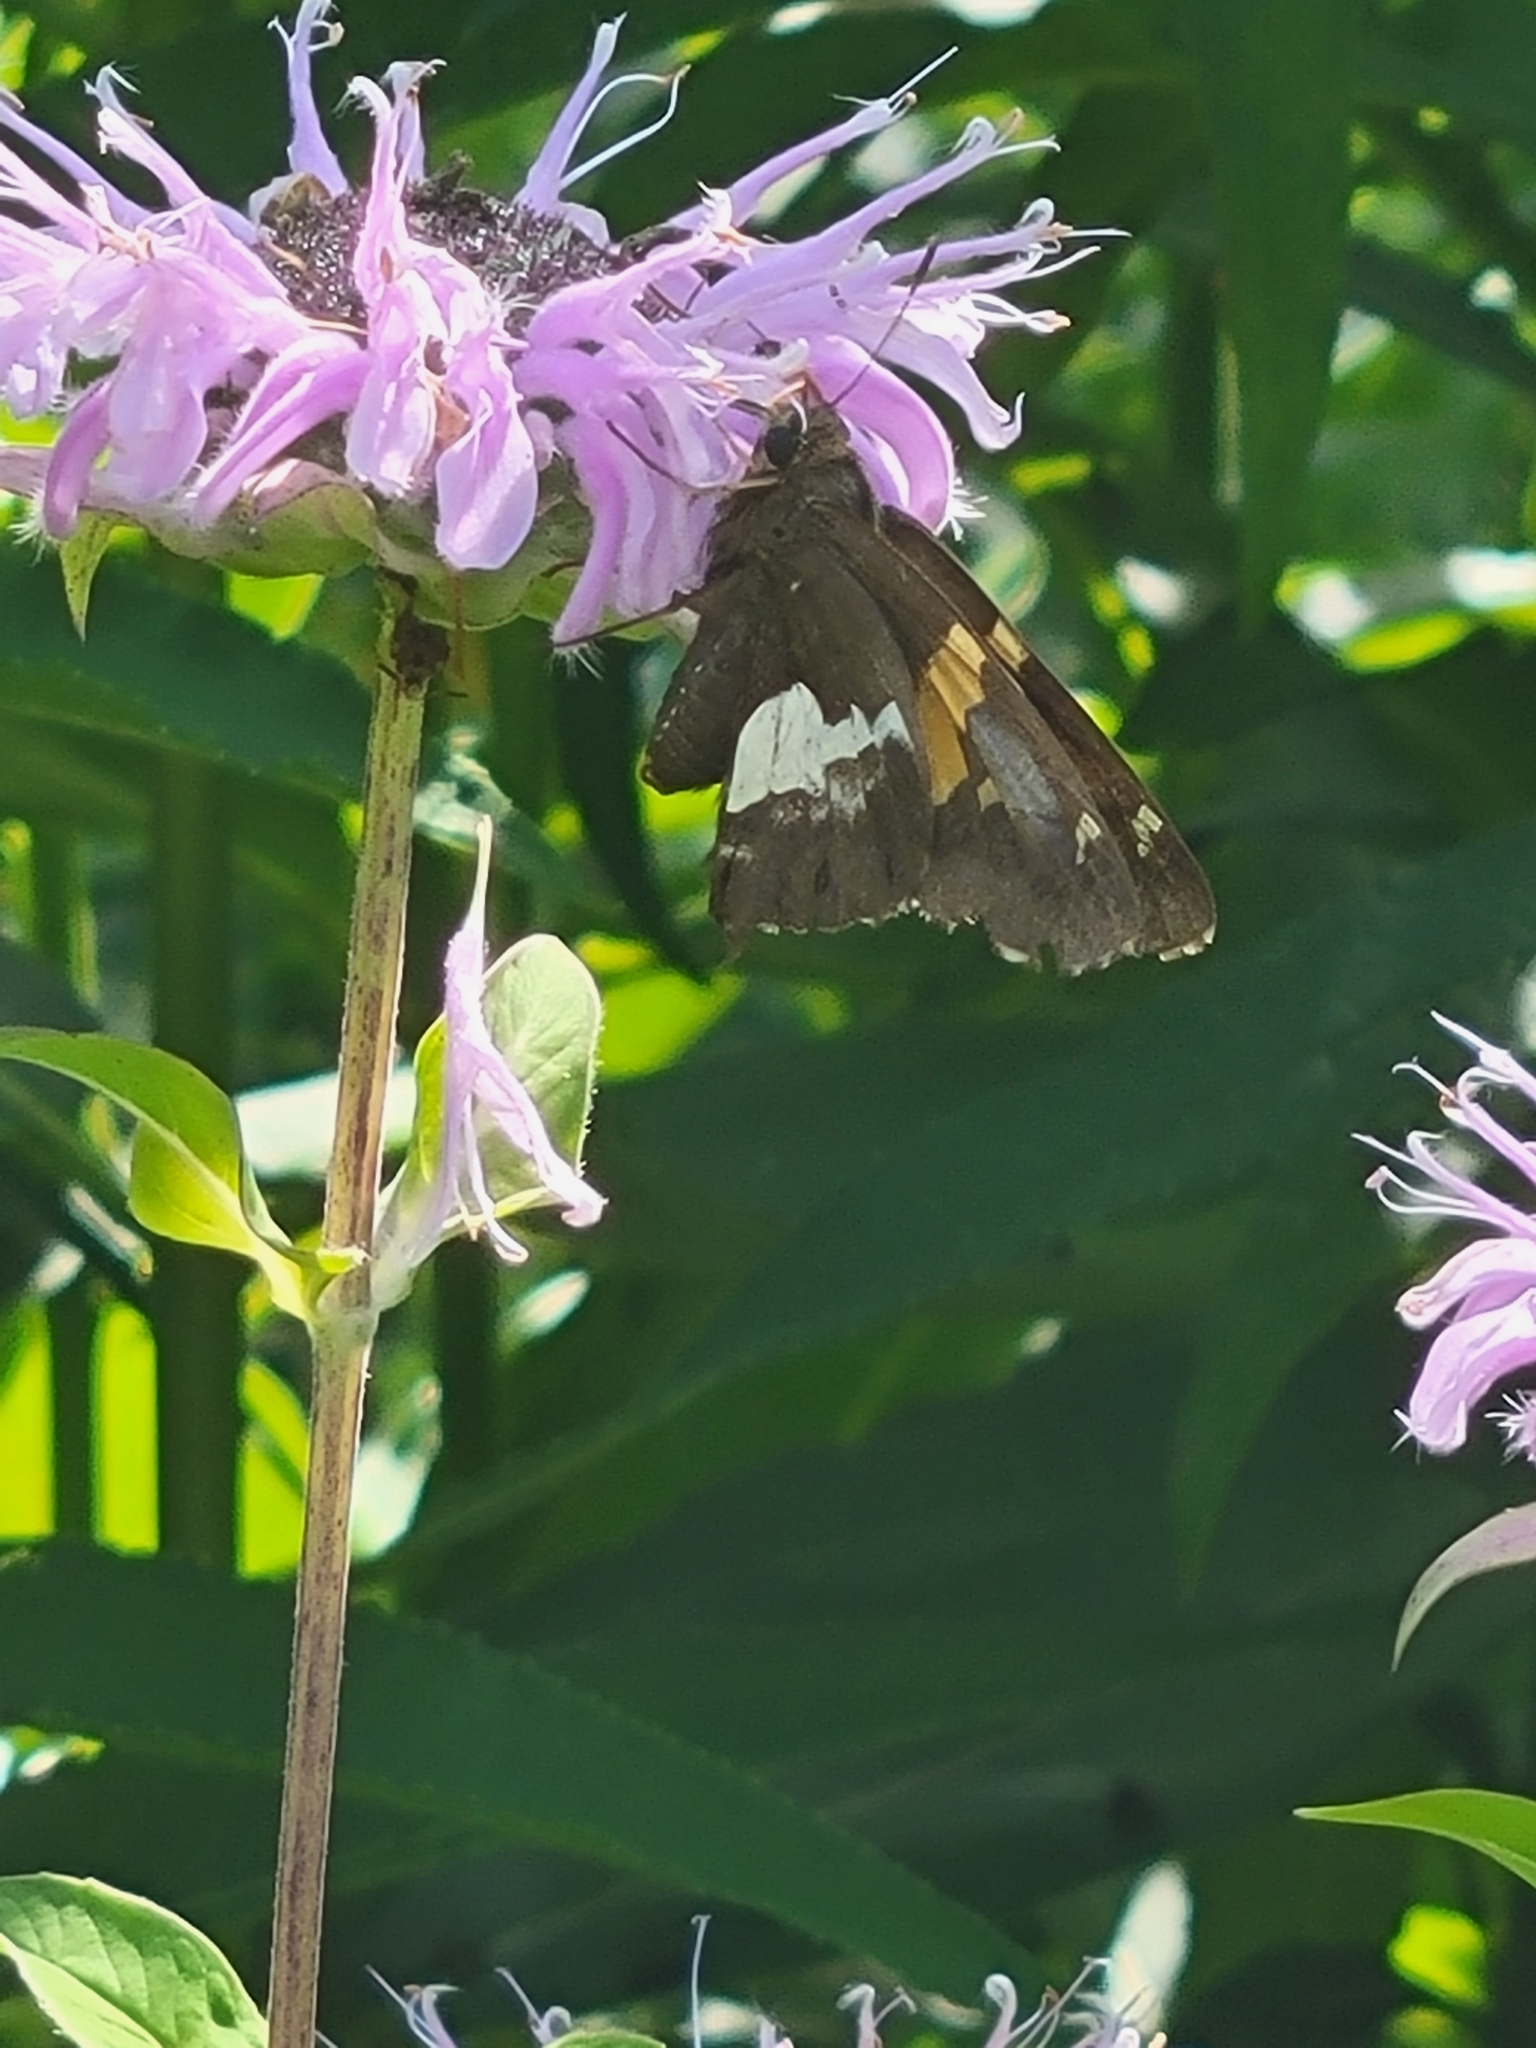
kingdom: Animalia
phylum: Arthropoda
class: Insecta
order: Lepidoptera
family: Hesperiidae
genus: Epargyreus
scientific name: Epargyreus clarus
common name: Silver-spotted skipper
